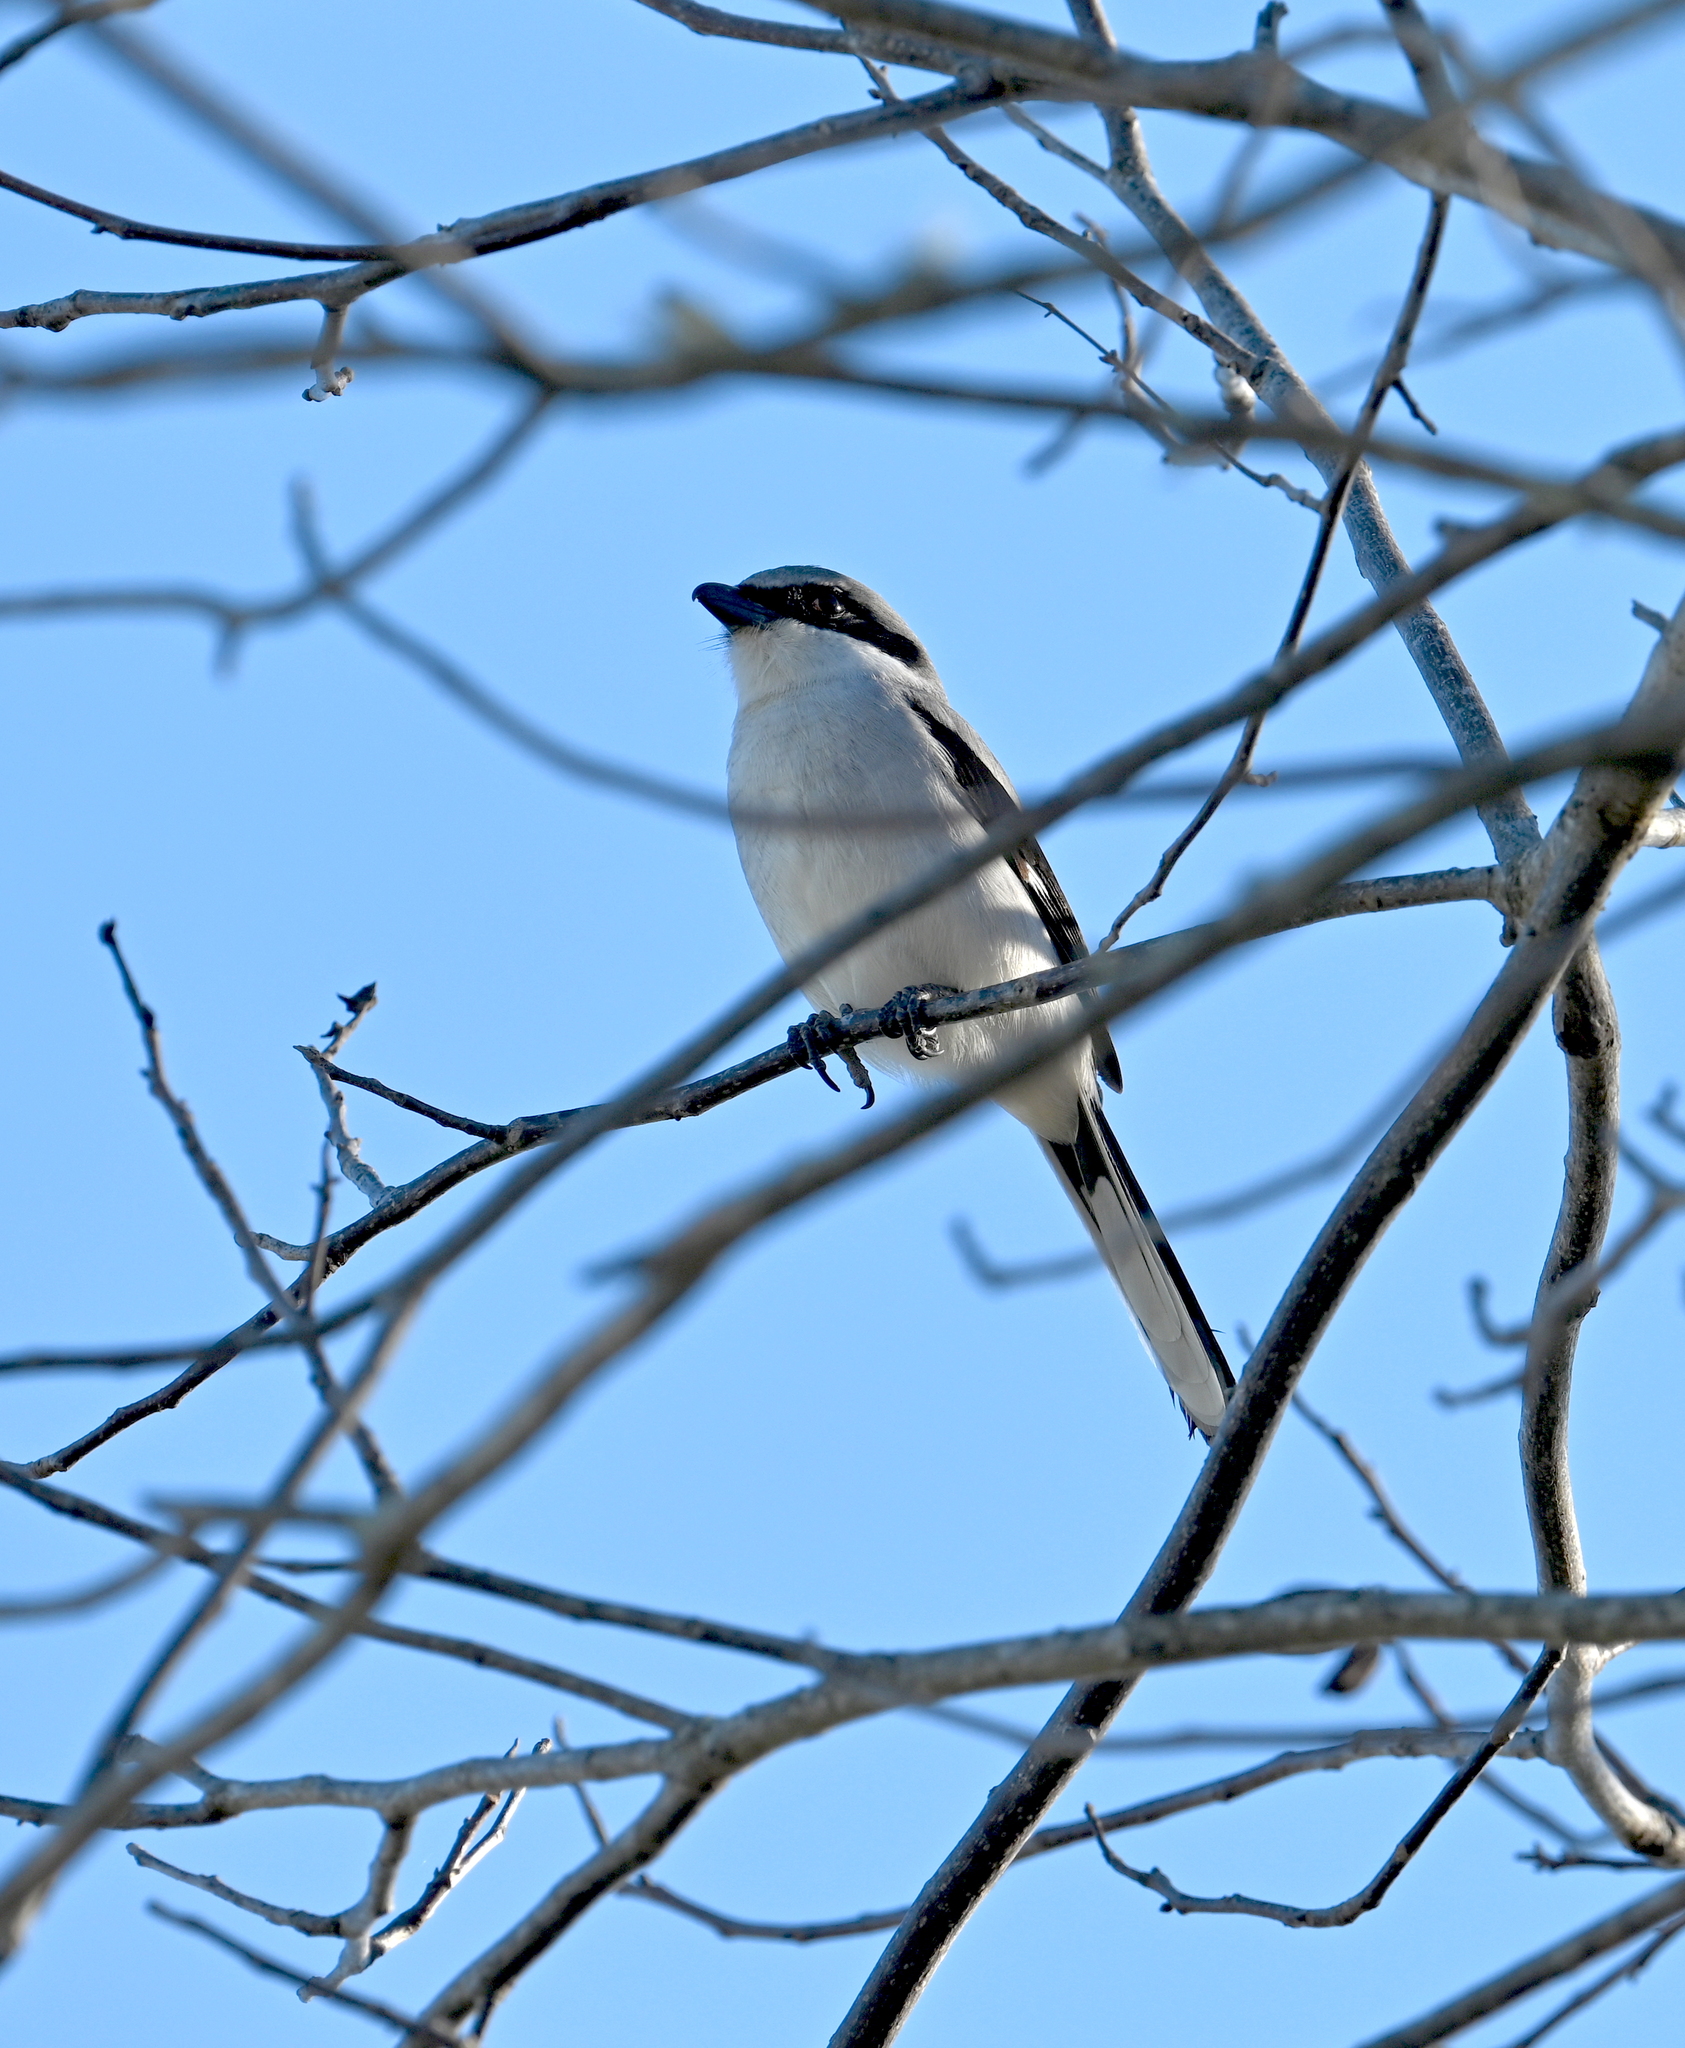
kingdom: Animalia
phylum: Chordata
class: Aves
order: Passeriformes
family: Laniidae
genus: Lanius
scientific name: Lanius ludovicianus
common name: Loggerhead shrike
